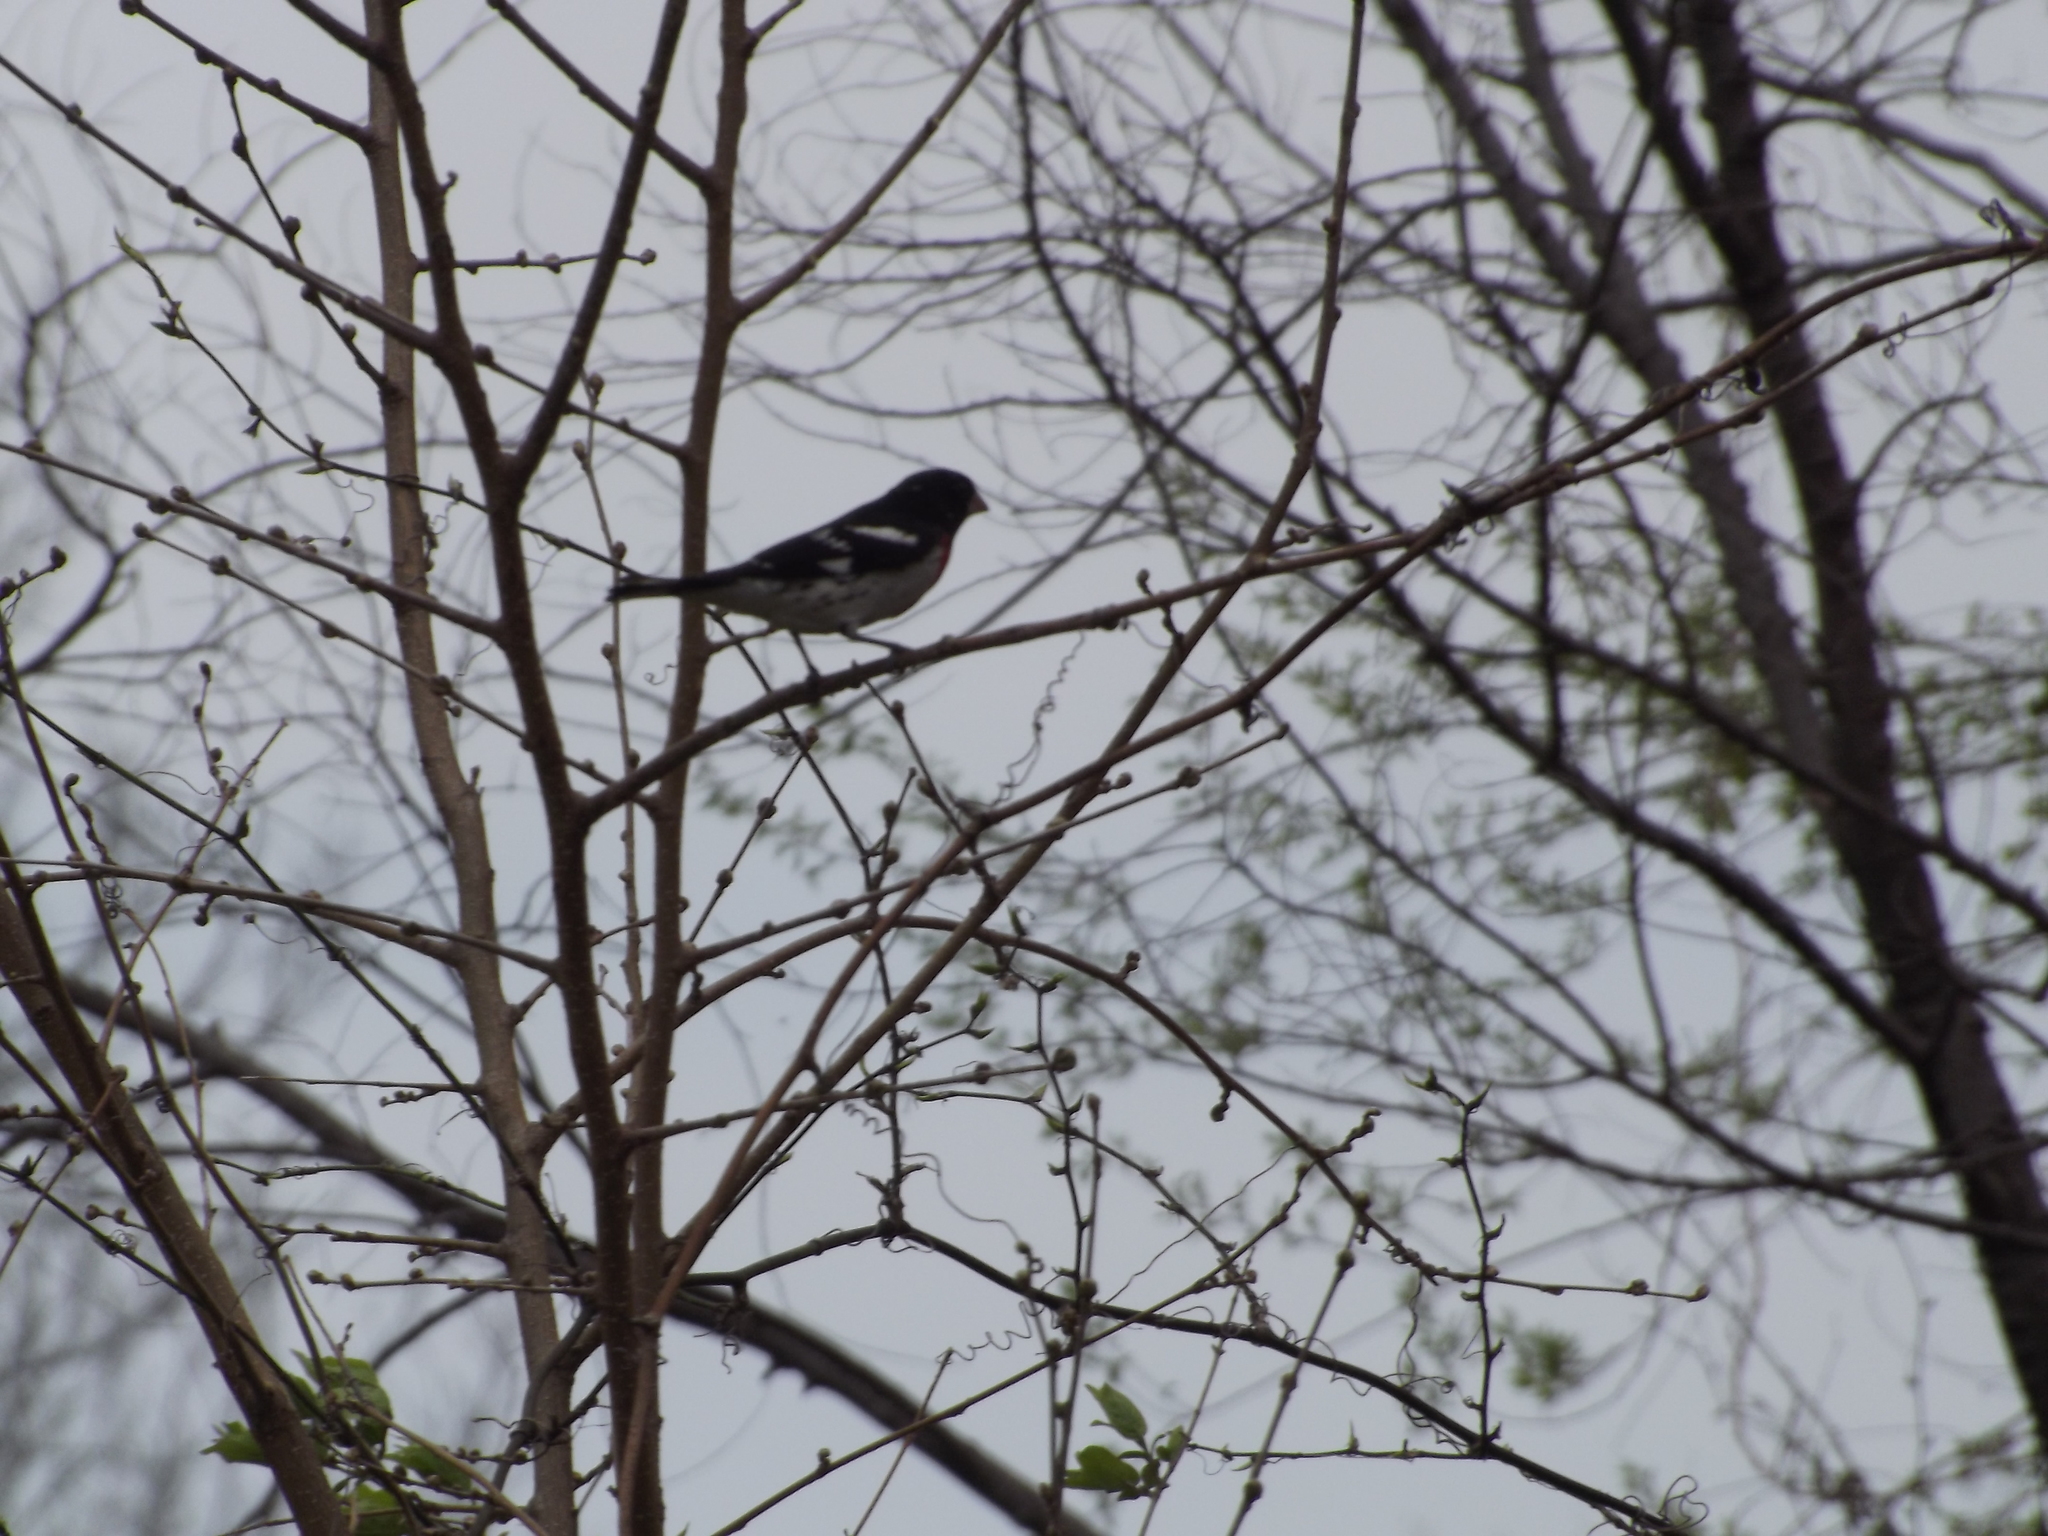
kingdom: Animalia
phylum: Chordata
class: Aves
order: Passeriformes
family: Cardinalidae
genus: Pheucticus
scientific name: Pheucticus ludovicianus
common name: Rose-breasted grosbeak
